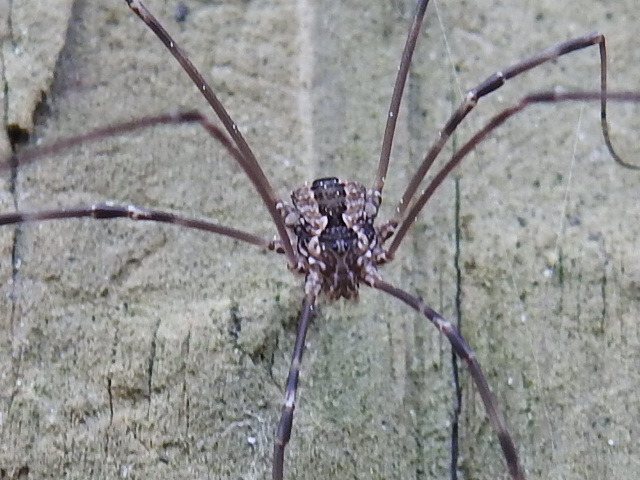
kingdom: Animalia
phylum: Arthropoda
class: Arachnida
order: Opiliones
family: Sclerosomatidae
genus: Leiobunum
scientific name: Leiobunum flavum
